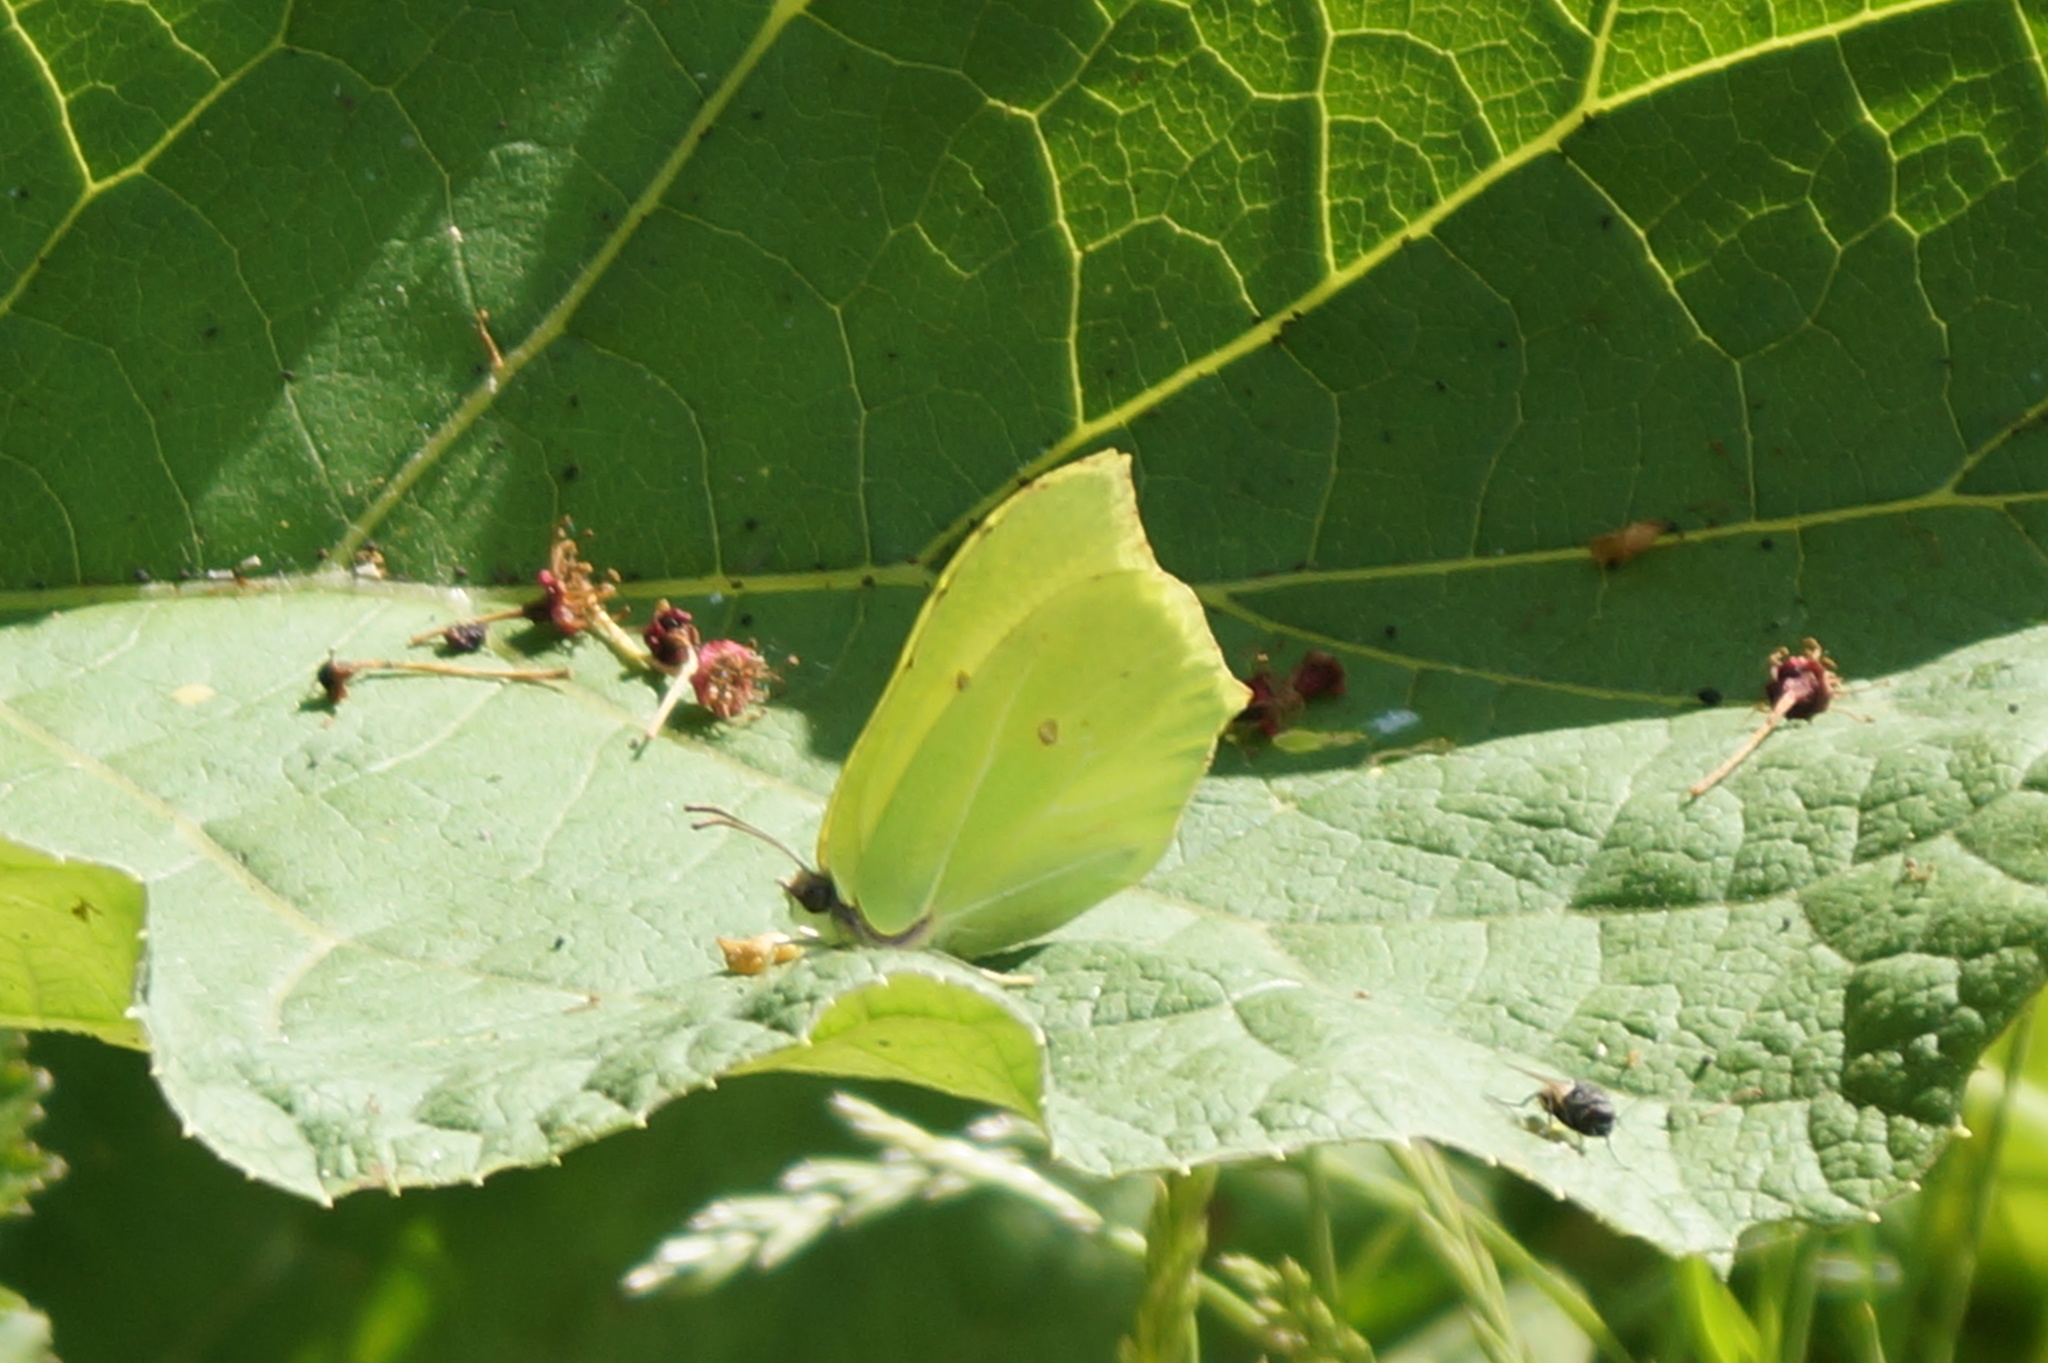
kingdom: Animalia
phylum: Arthropoda
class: Insecta
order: Lepidoptera
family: Pieridae
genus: Gonepteryx
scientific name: Gonepteryx rhamni
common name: Brimstone
